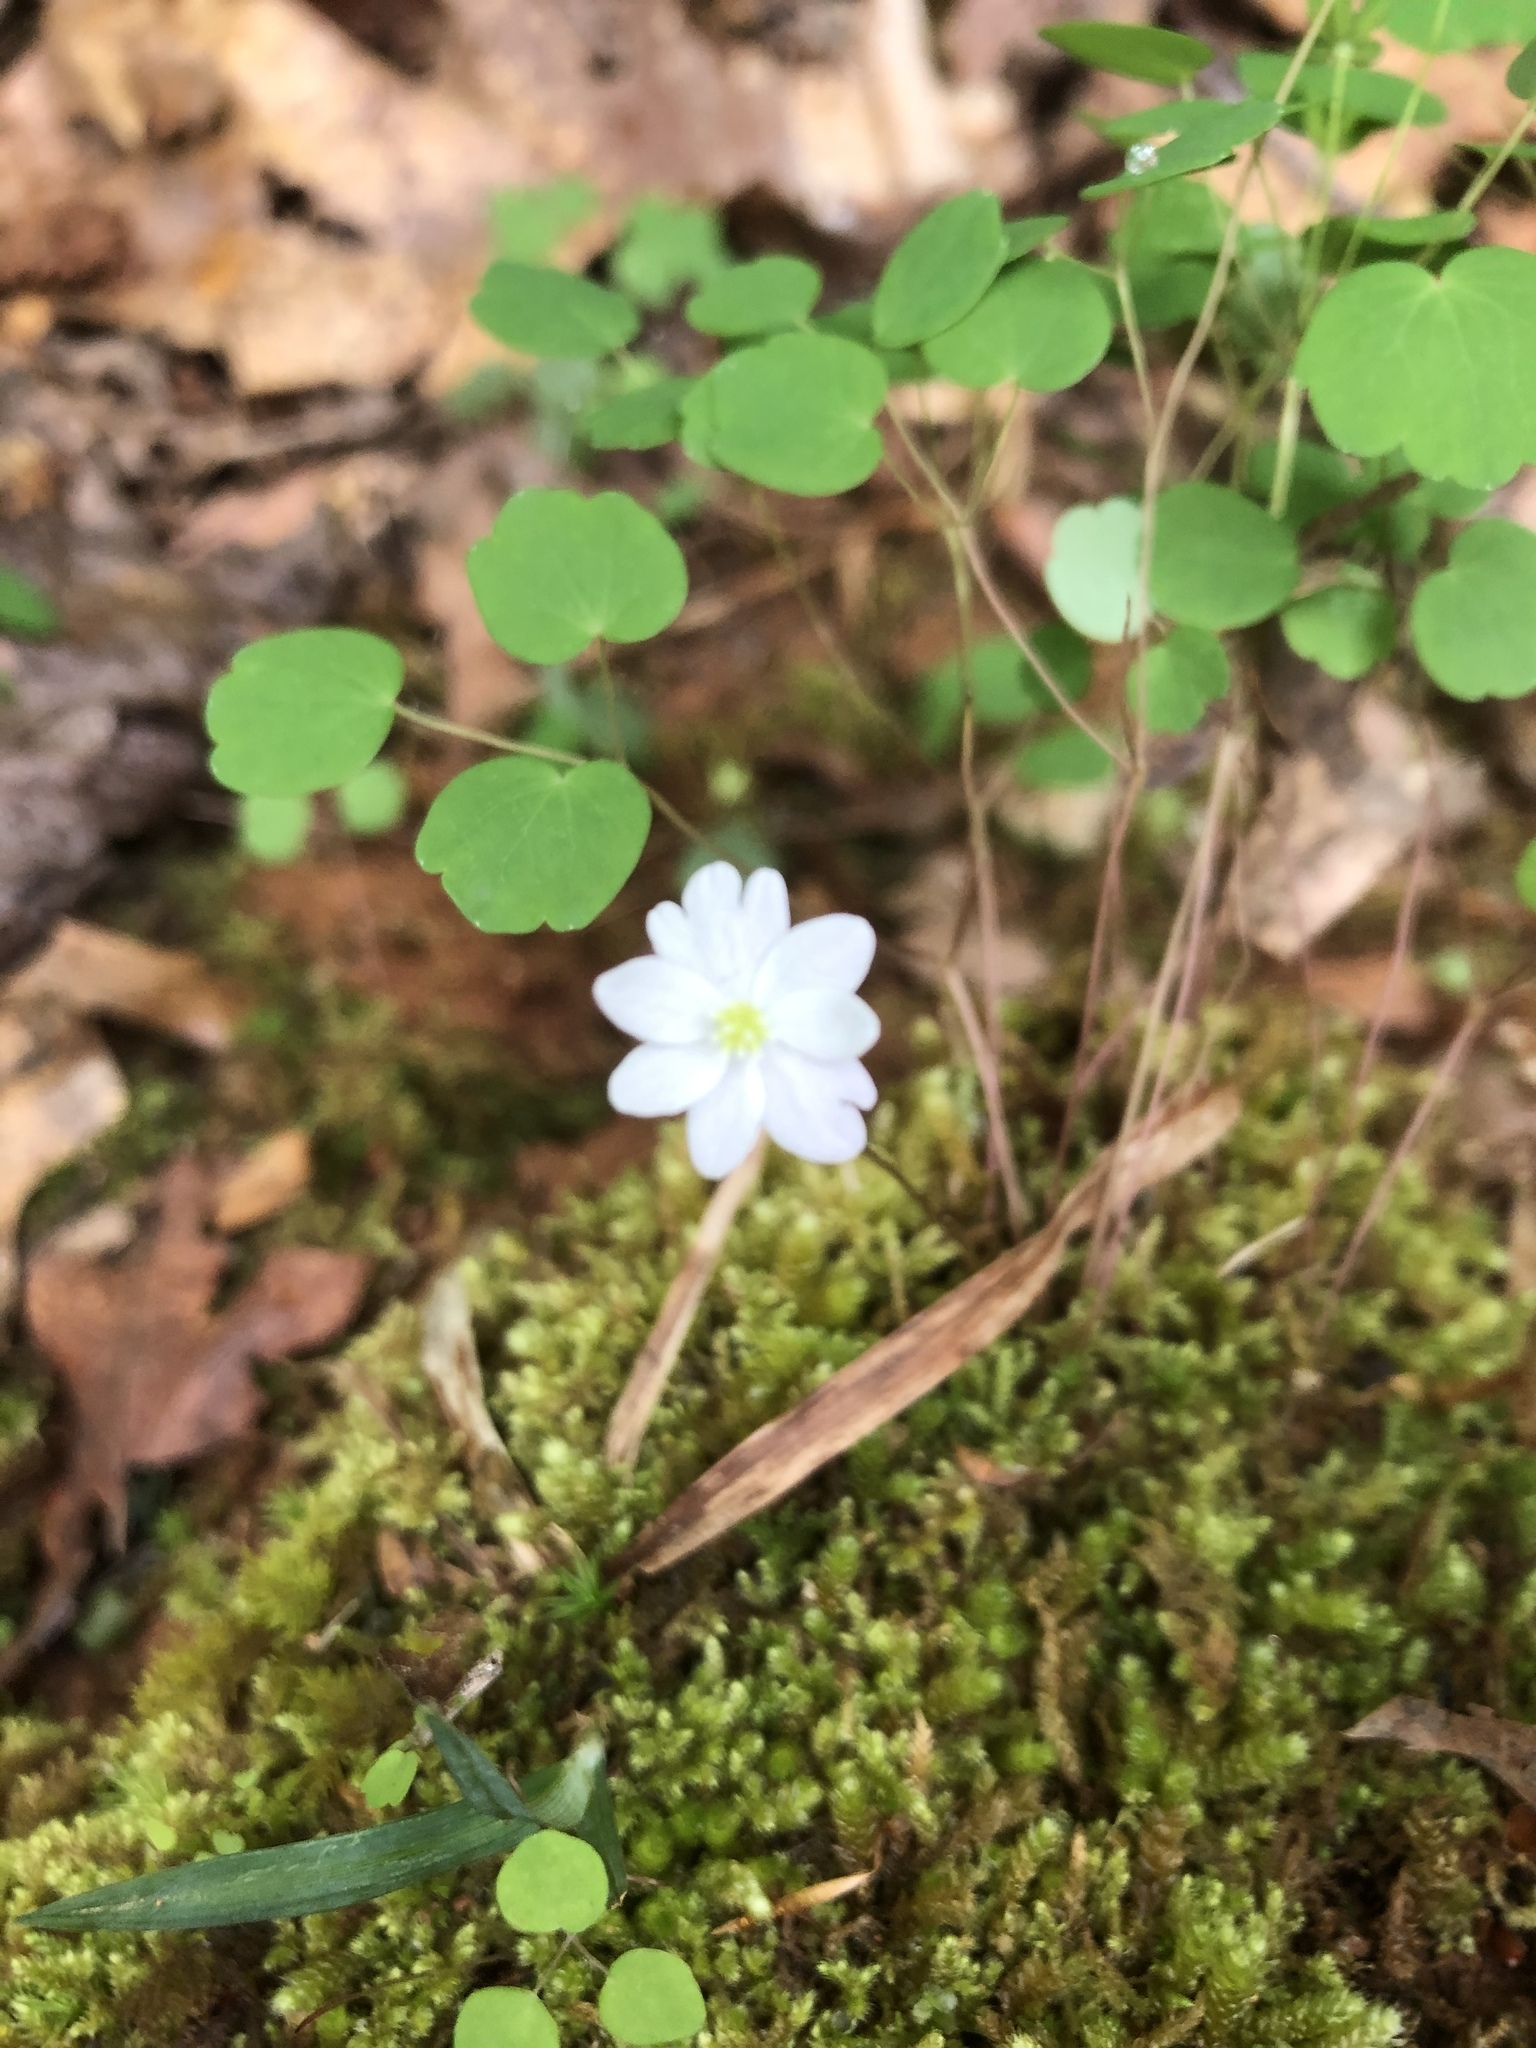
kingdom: Plantae
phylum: Tracheophyta
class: Magnoliopsida
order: Ranunculales
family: Ranunculaceae
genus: Thalictrum
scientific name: Thalictrum thalictroides
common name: Rue-anemone
